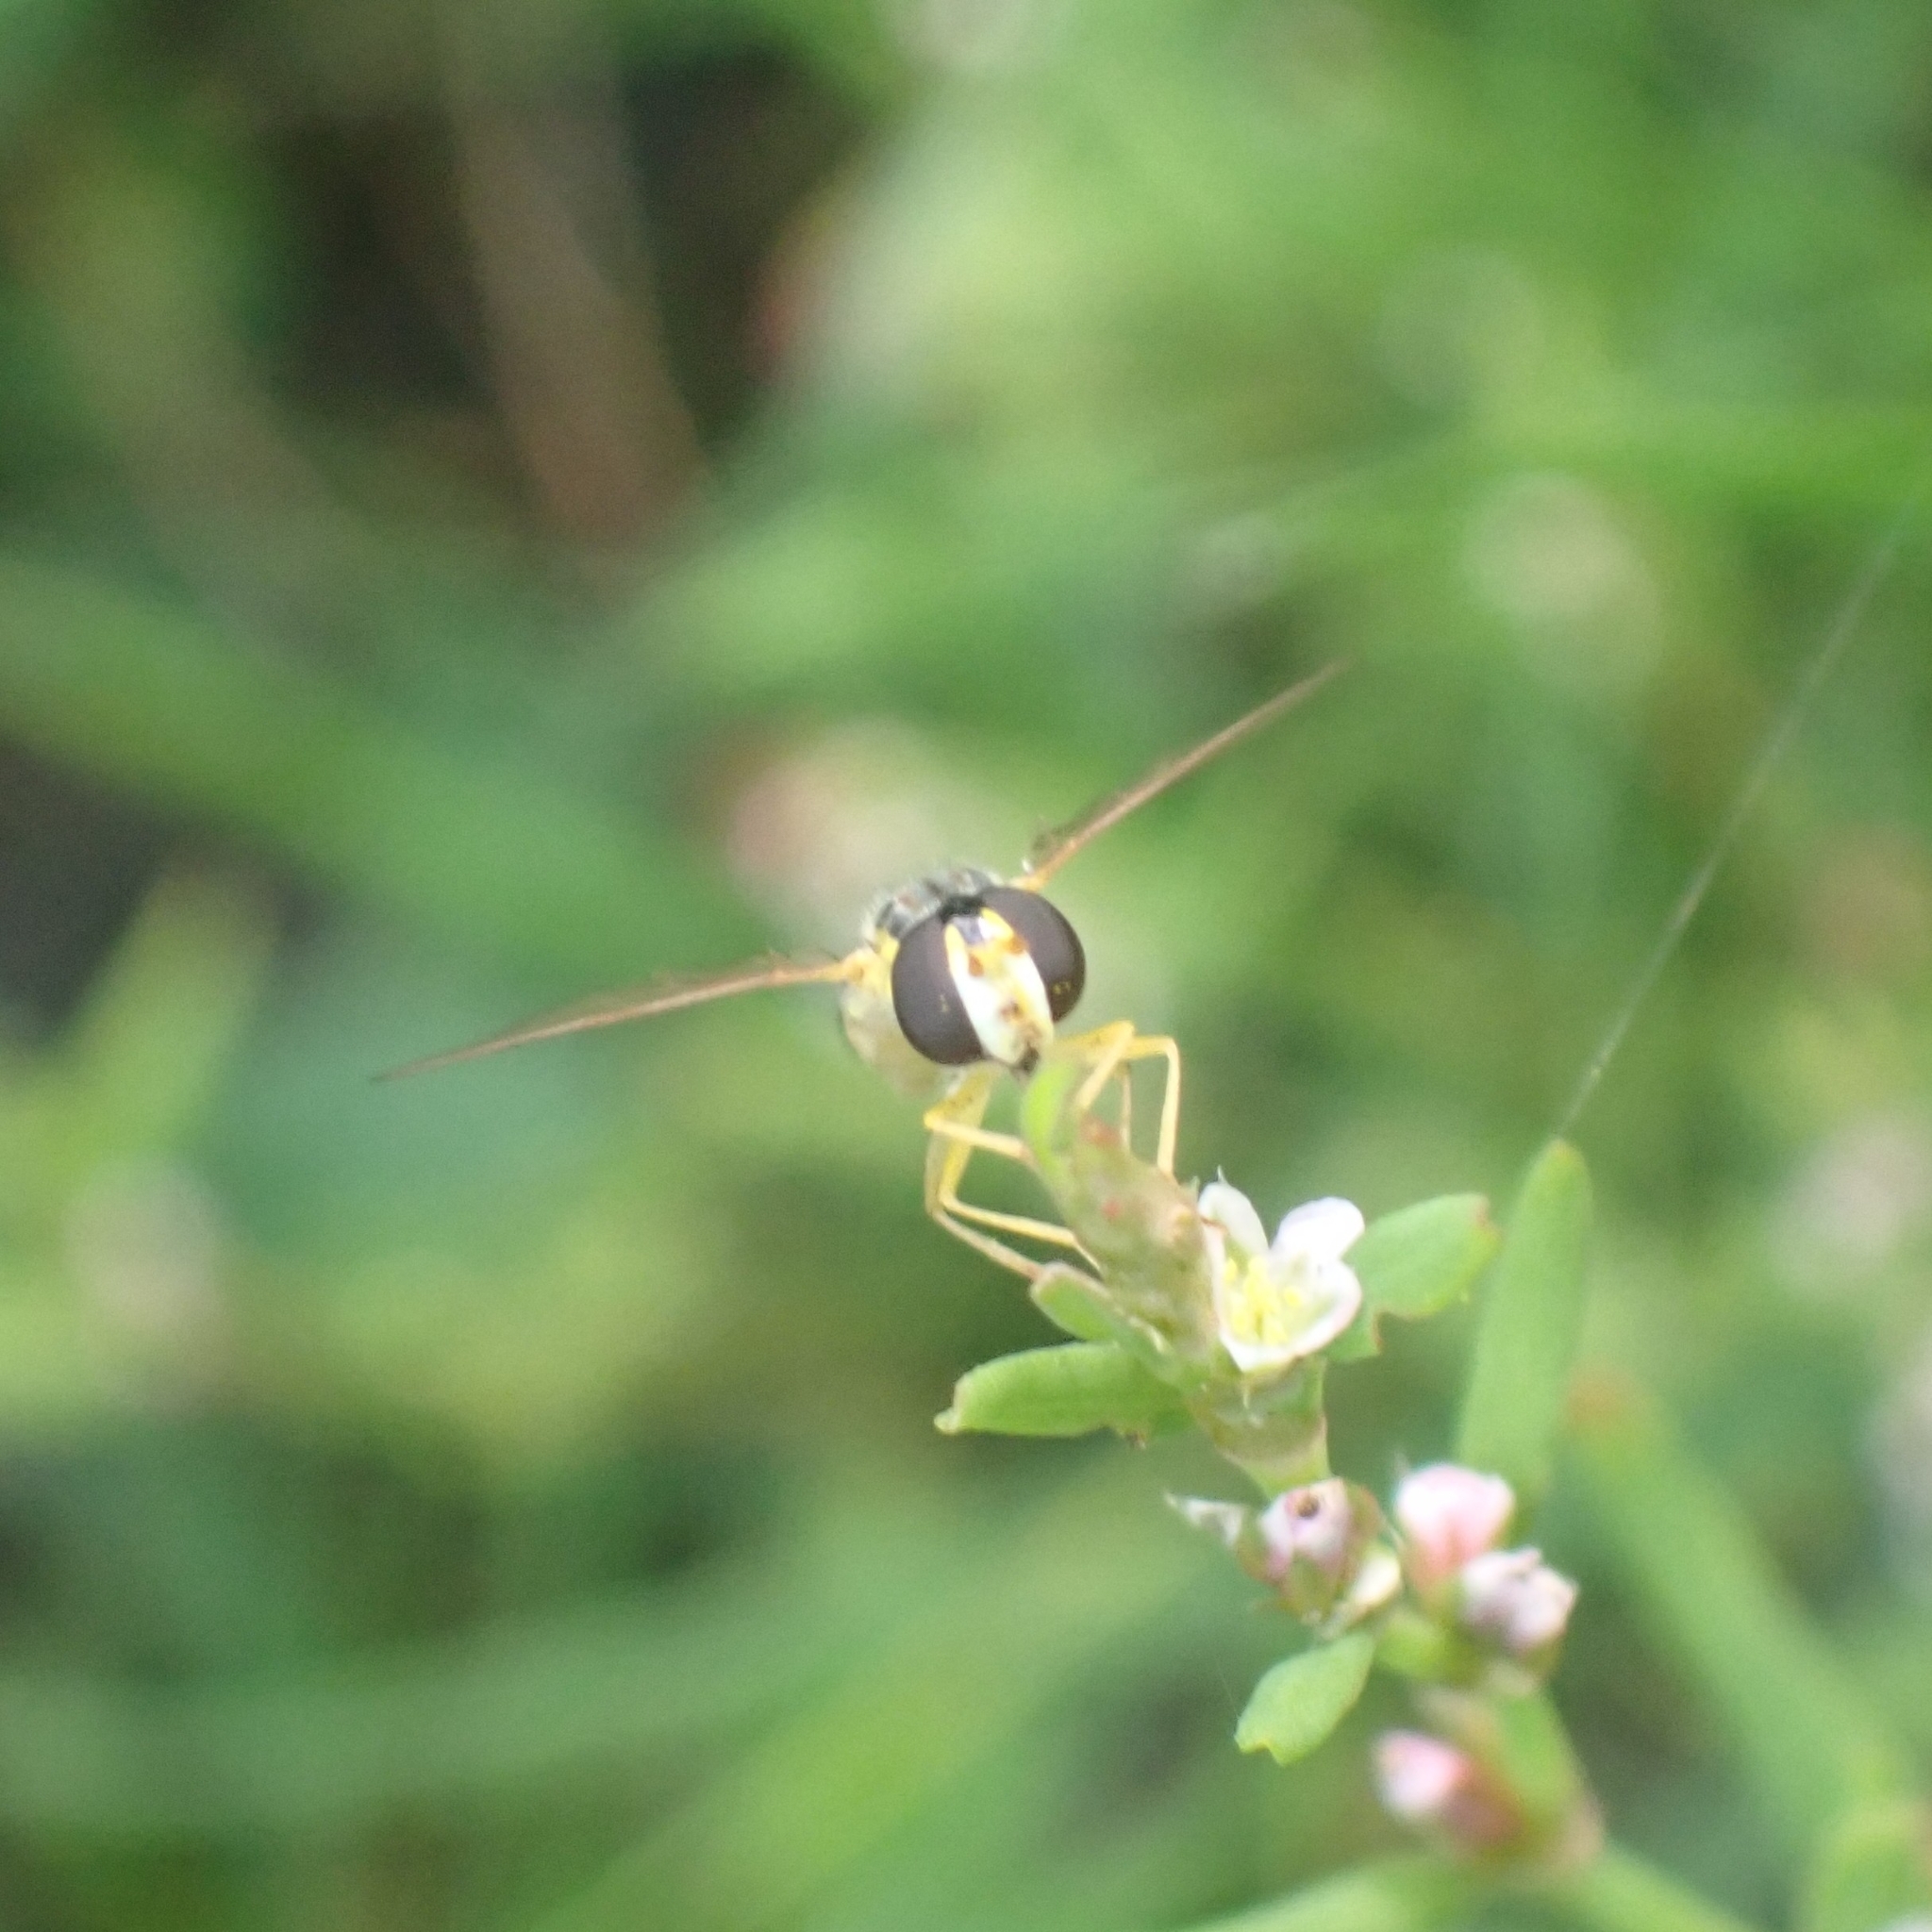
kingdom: Animalia
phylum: Arthropoda
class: Insecta
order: Diptera
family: Syrphidae
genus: Sphaerophoria
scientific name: Sphaerophoria
